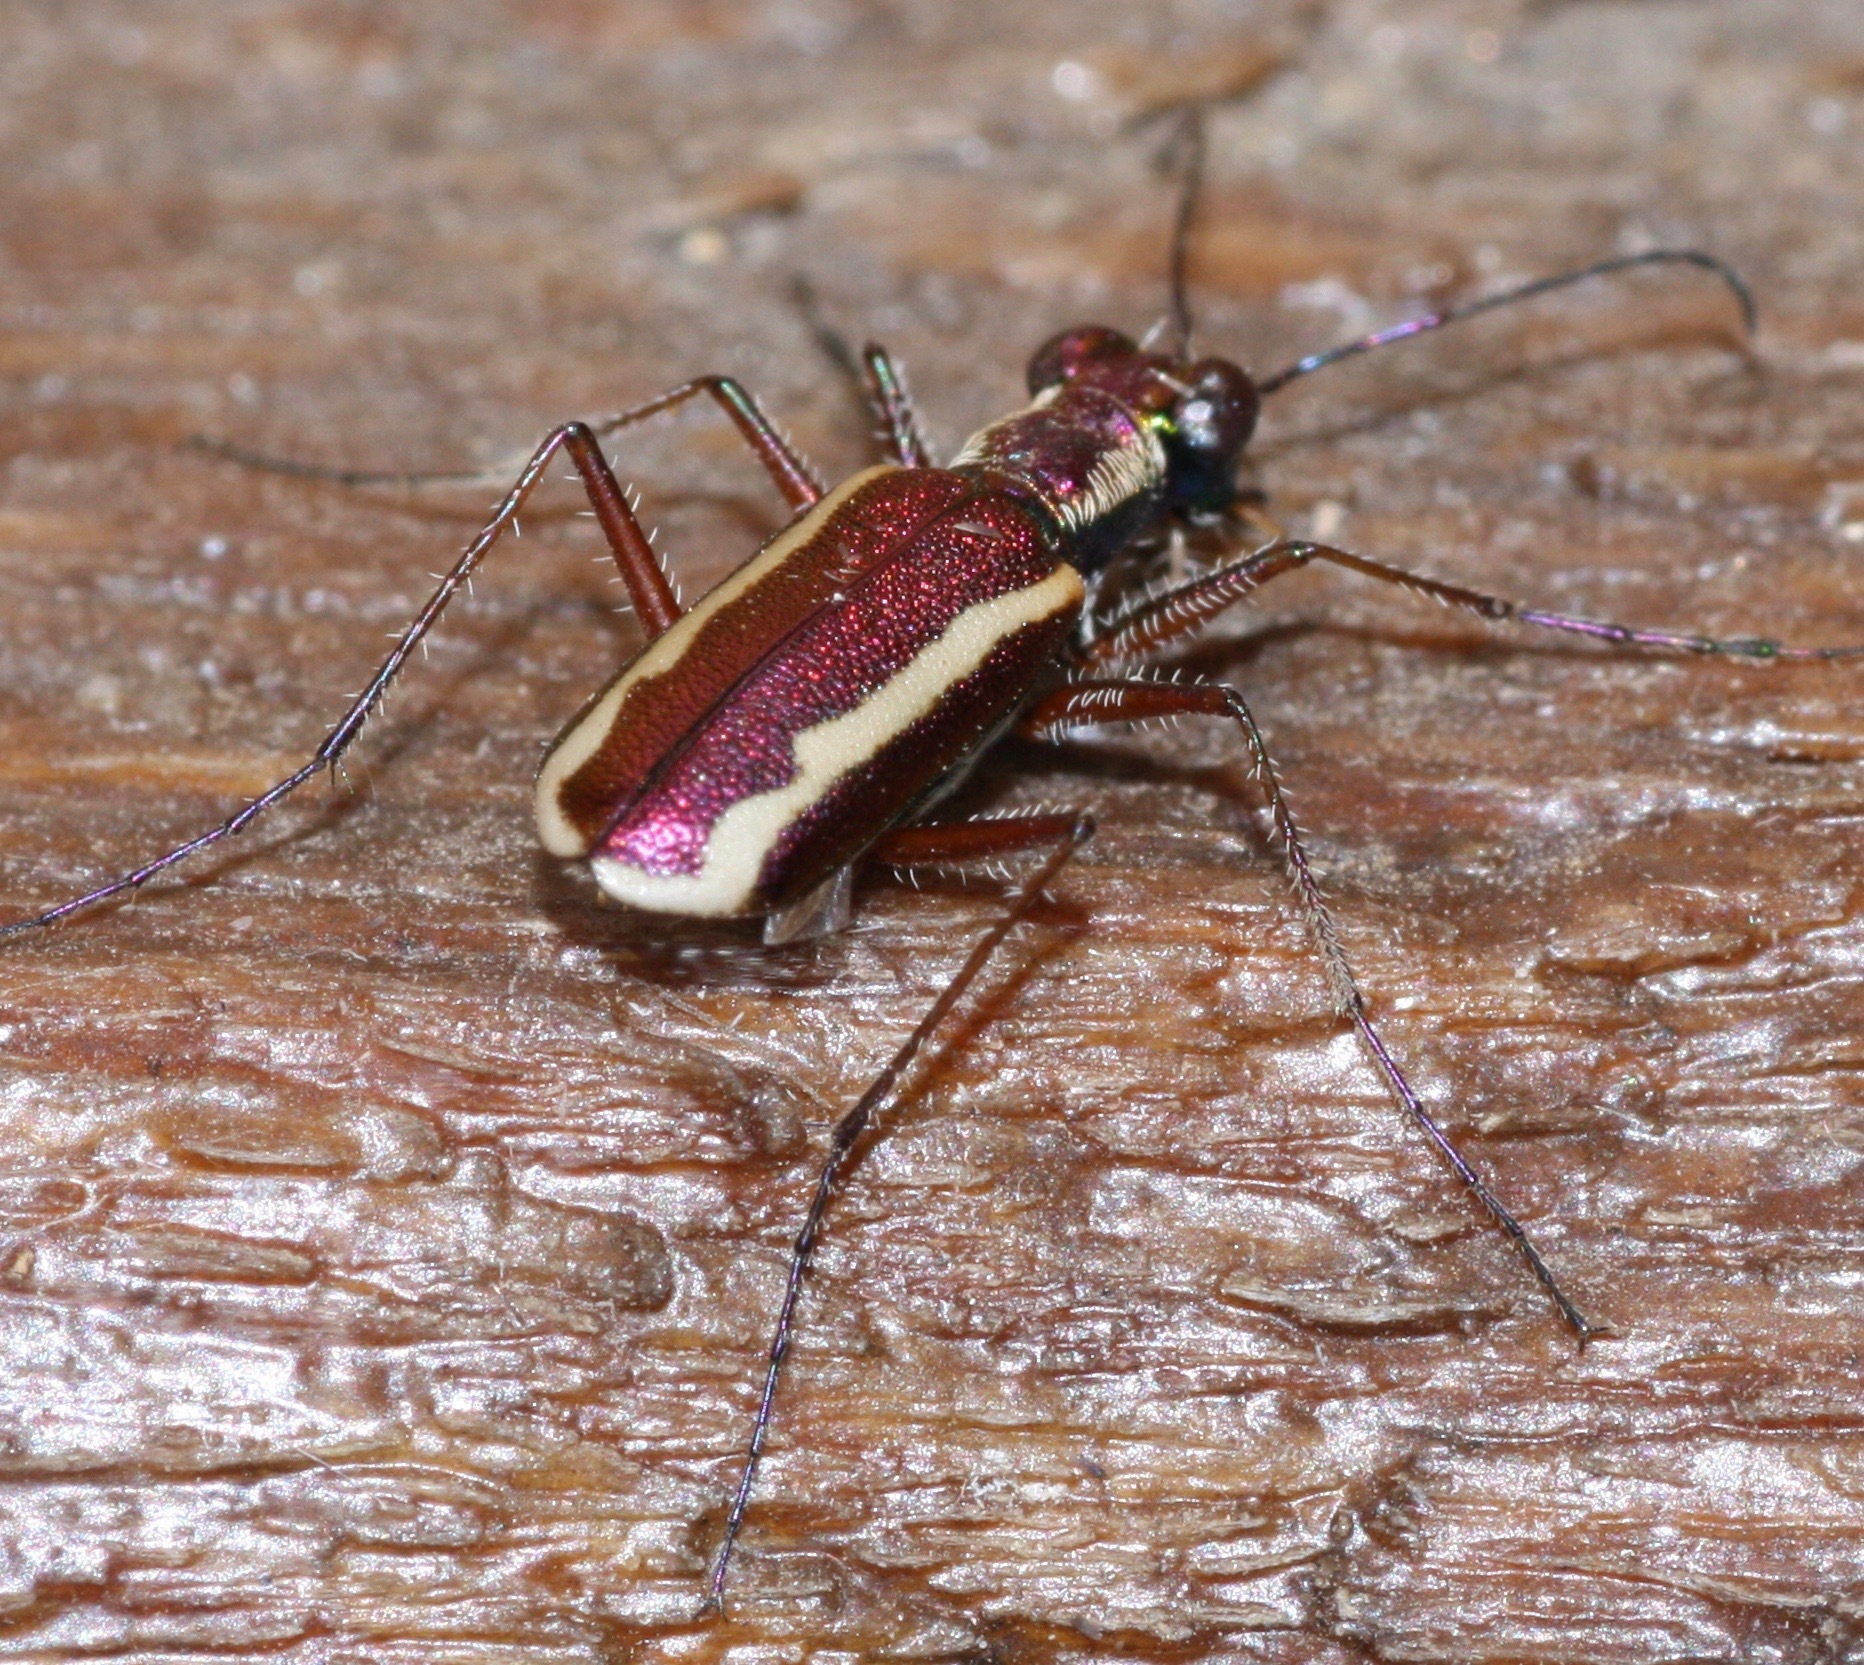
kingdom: Animalia
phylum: Arthropoda
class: Insecta
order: Coleoptera
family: Carabidae
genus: Cylindera
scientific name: Cylindera lemniscata
